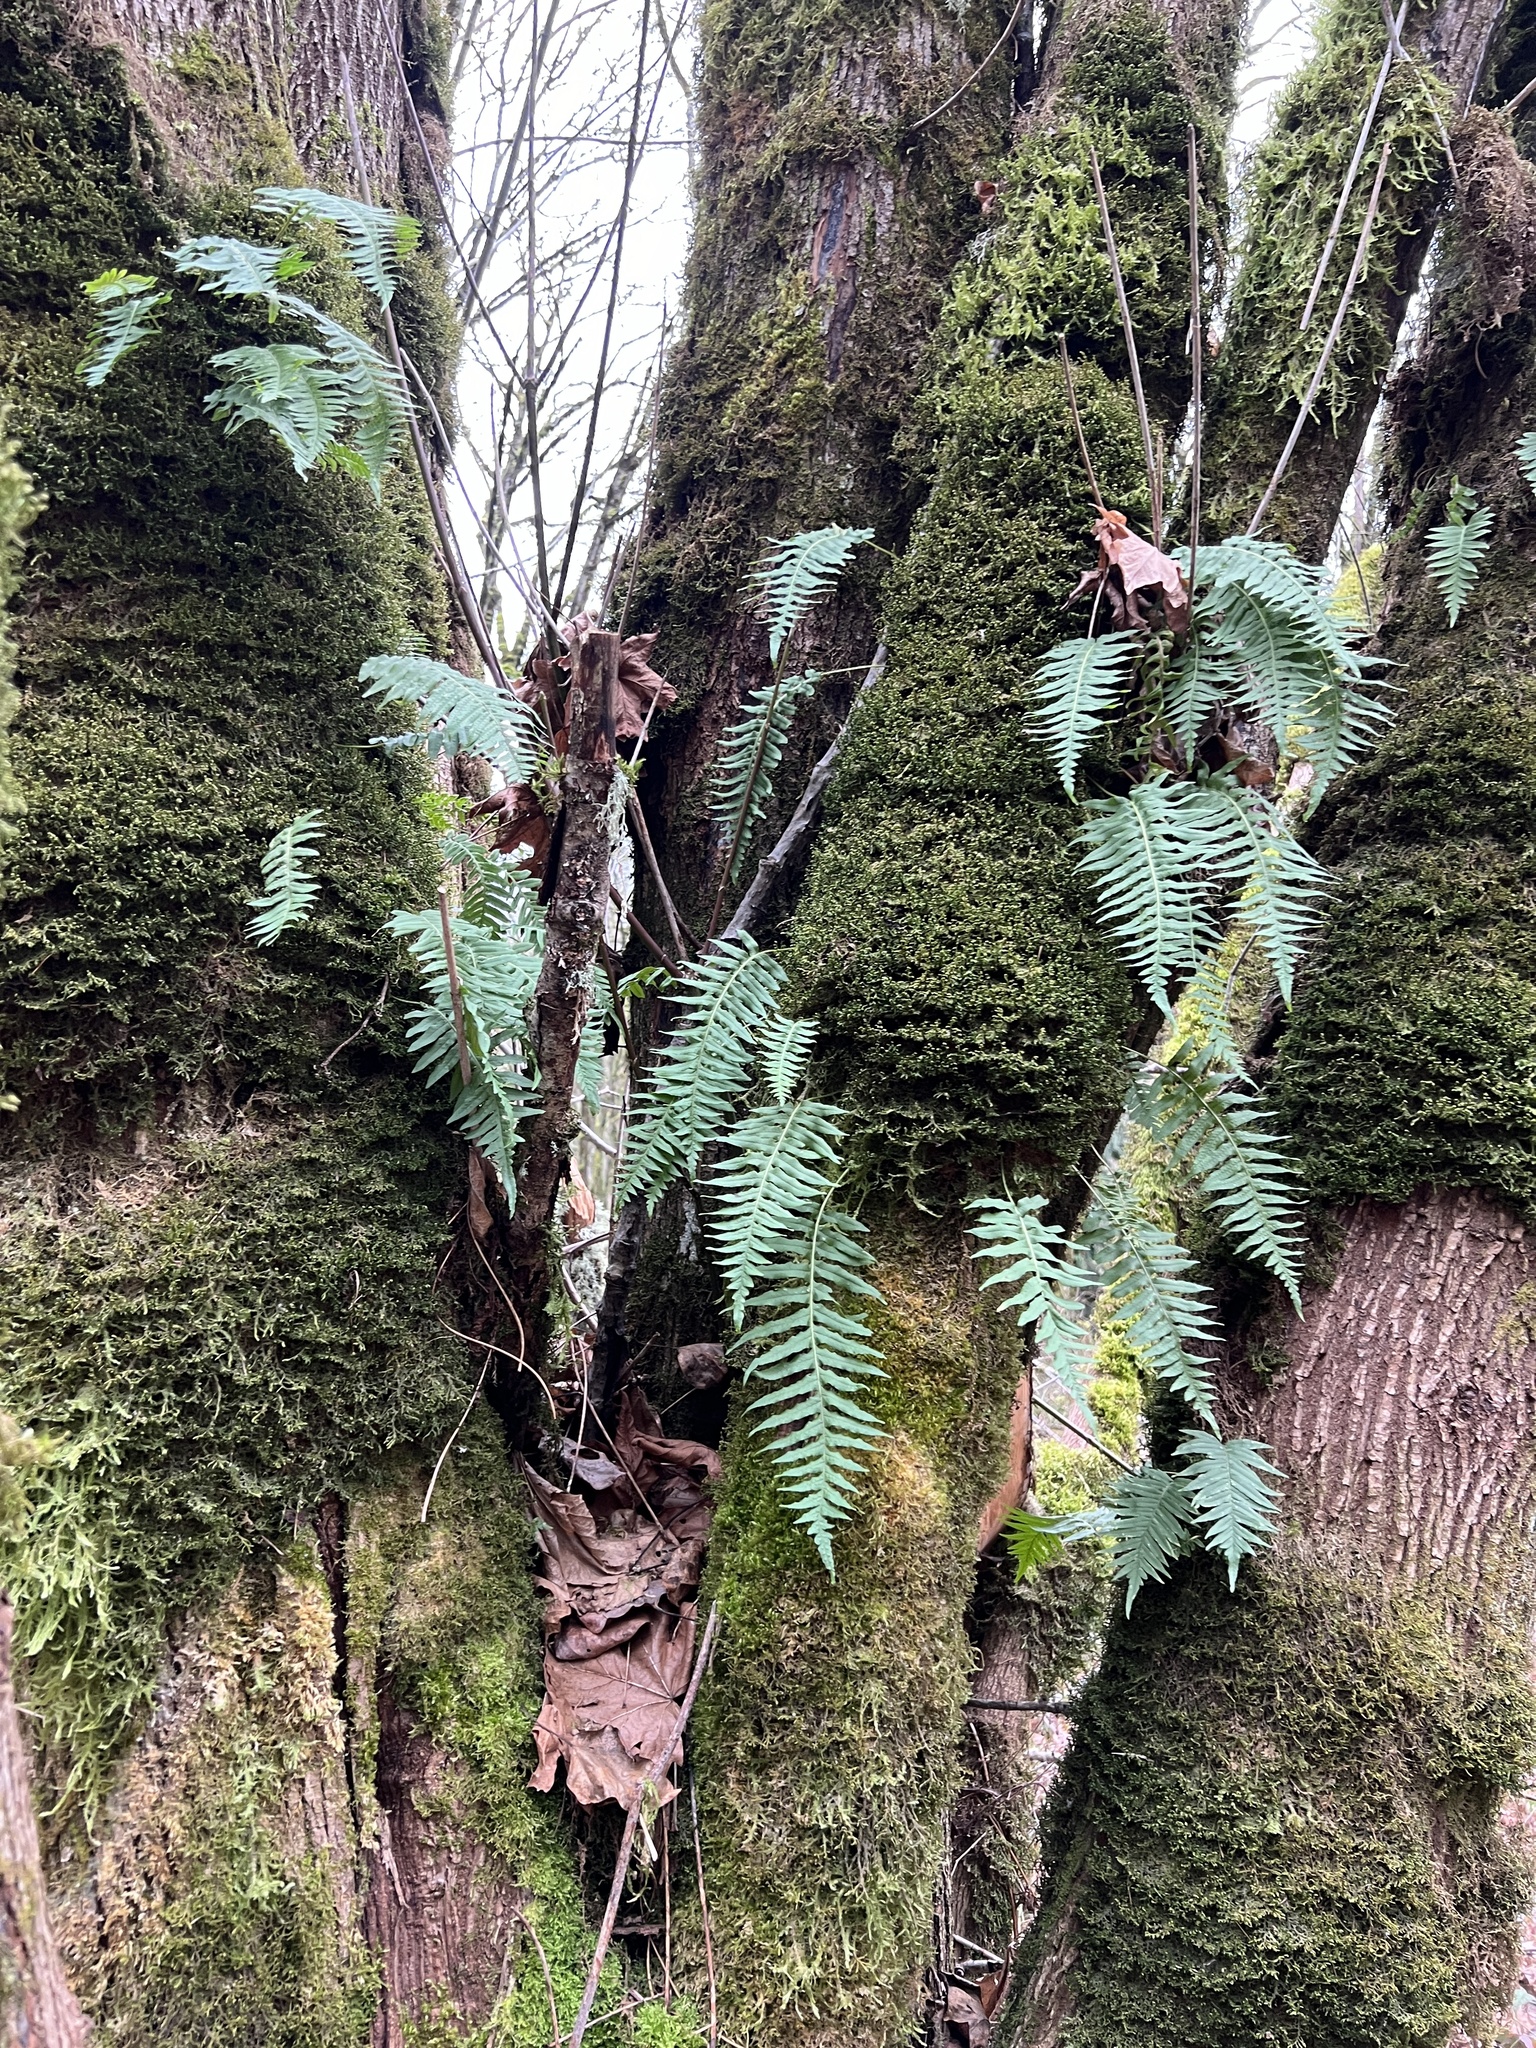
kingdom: Plantae
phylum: Tracheophyta
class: Polypodiopsida
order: Polypodiales
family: Polypodiaceae
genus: Polypodium
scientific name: Polypodium glycyrrhiza
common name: Licorice fern
